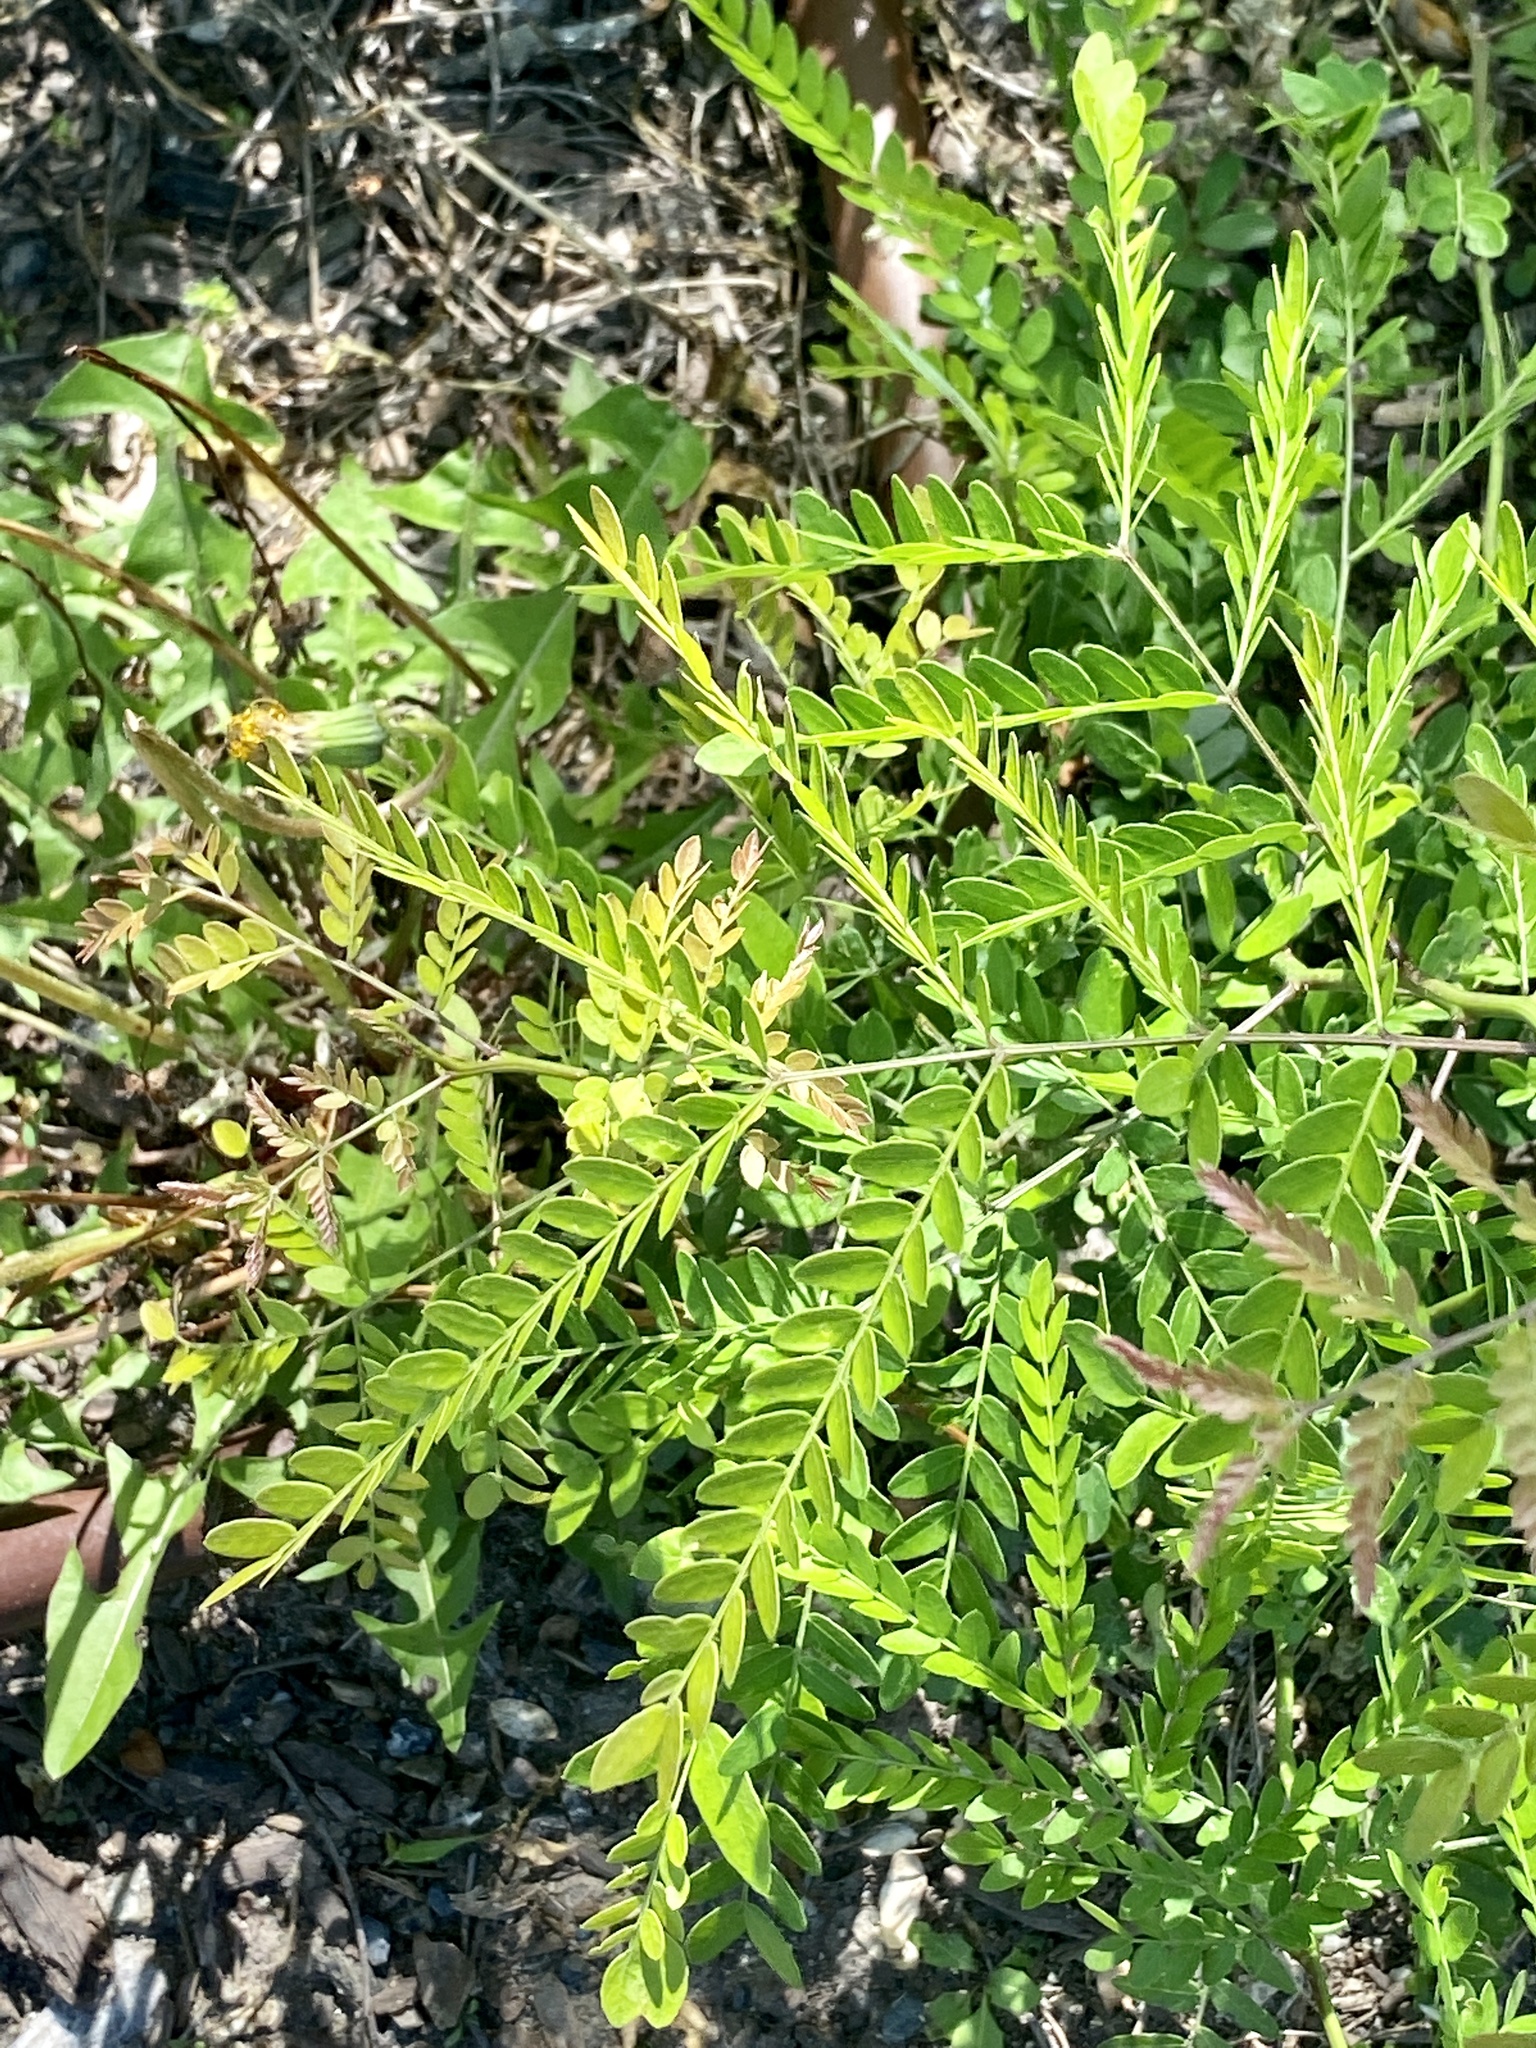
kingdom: Plantae
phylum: Tracheophyta
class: Magnoliopsida
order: Fabales
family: Fabaceae
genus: Gleditsia
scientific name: Gleditsia triacanthos
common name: Common honeylocust
